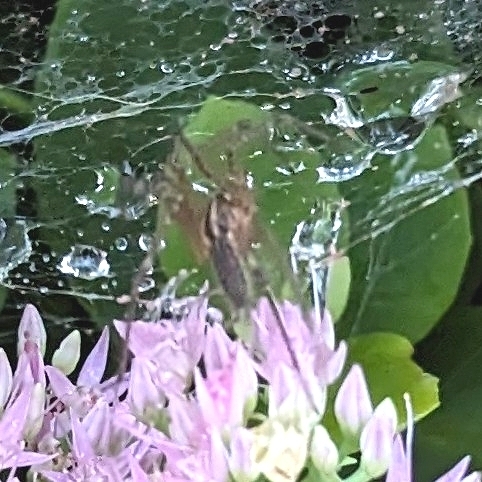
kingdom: Animalia
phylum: Arthropoda
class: Arachnida
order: Araneae
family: Agelenidae
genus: Agelenopsis
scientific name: Agelenopsis
